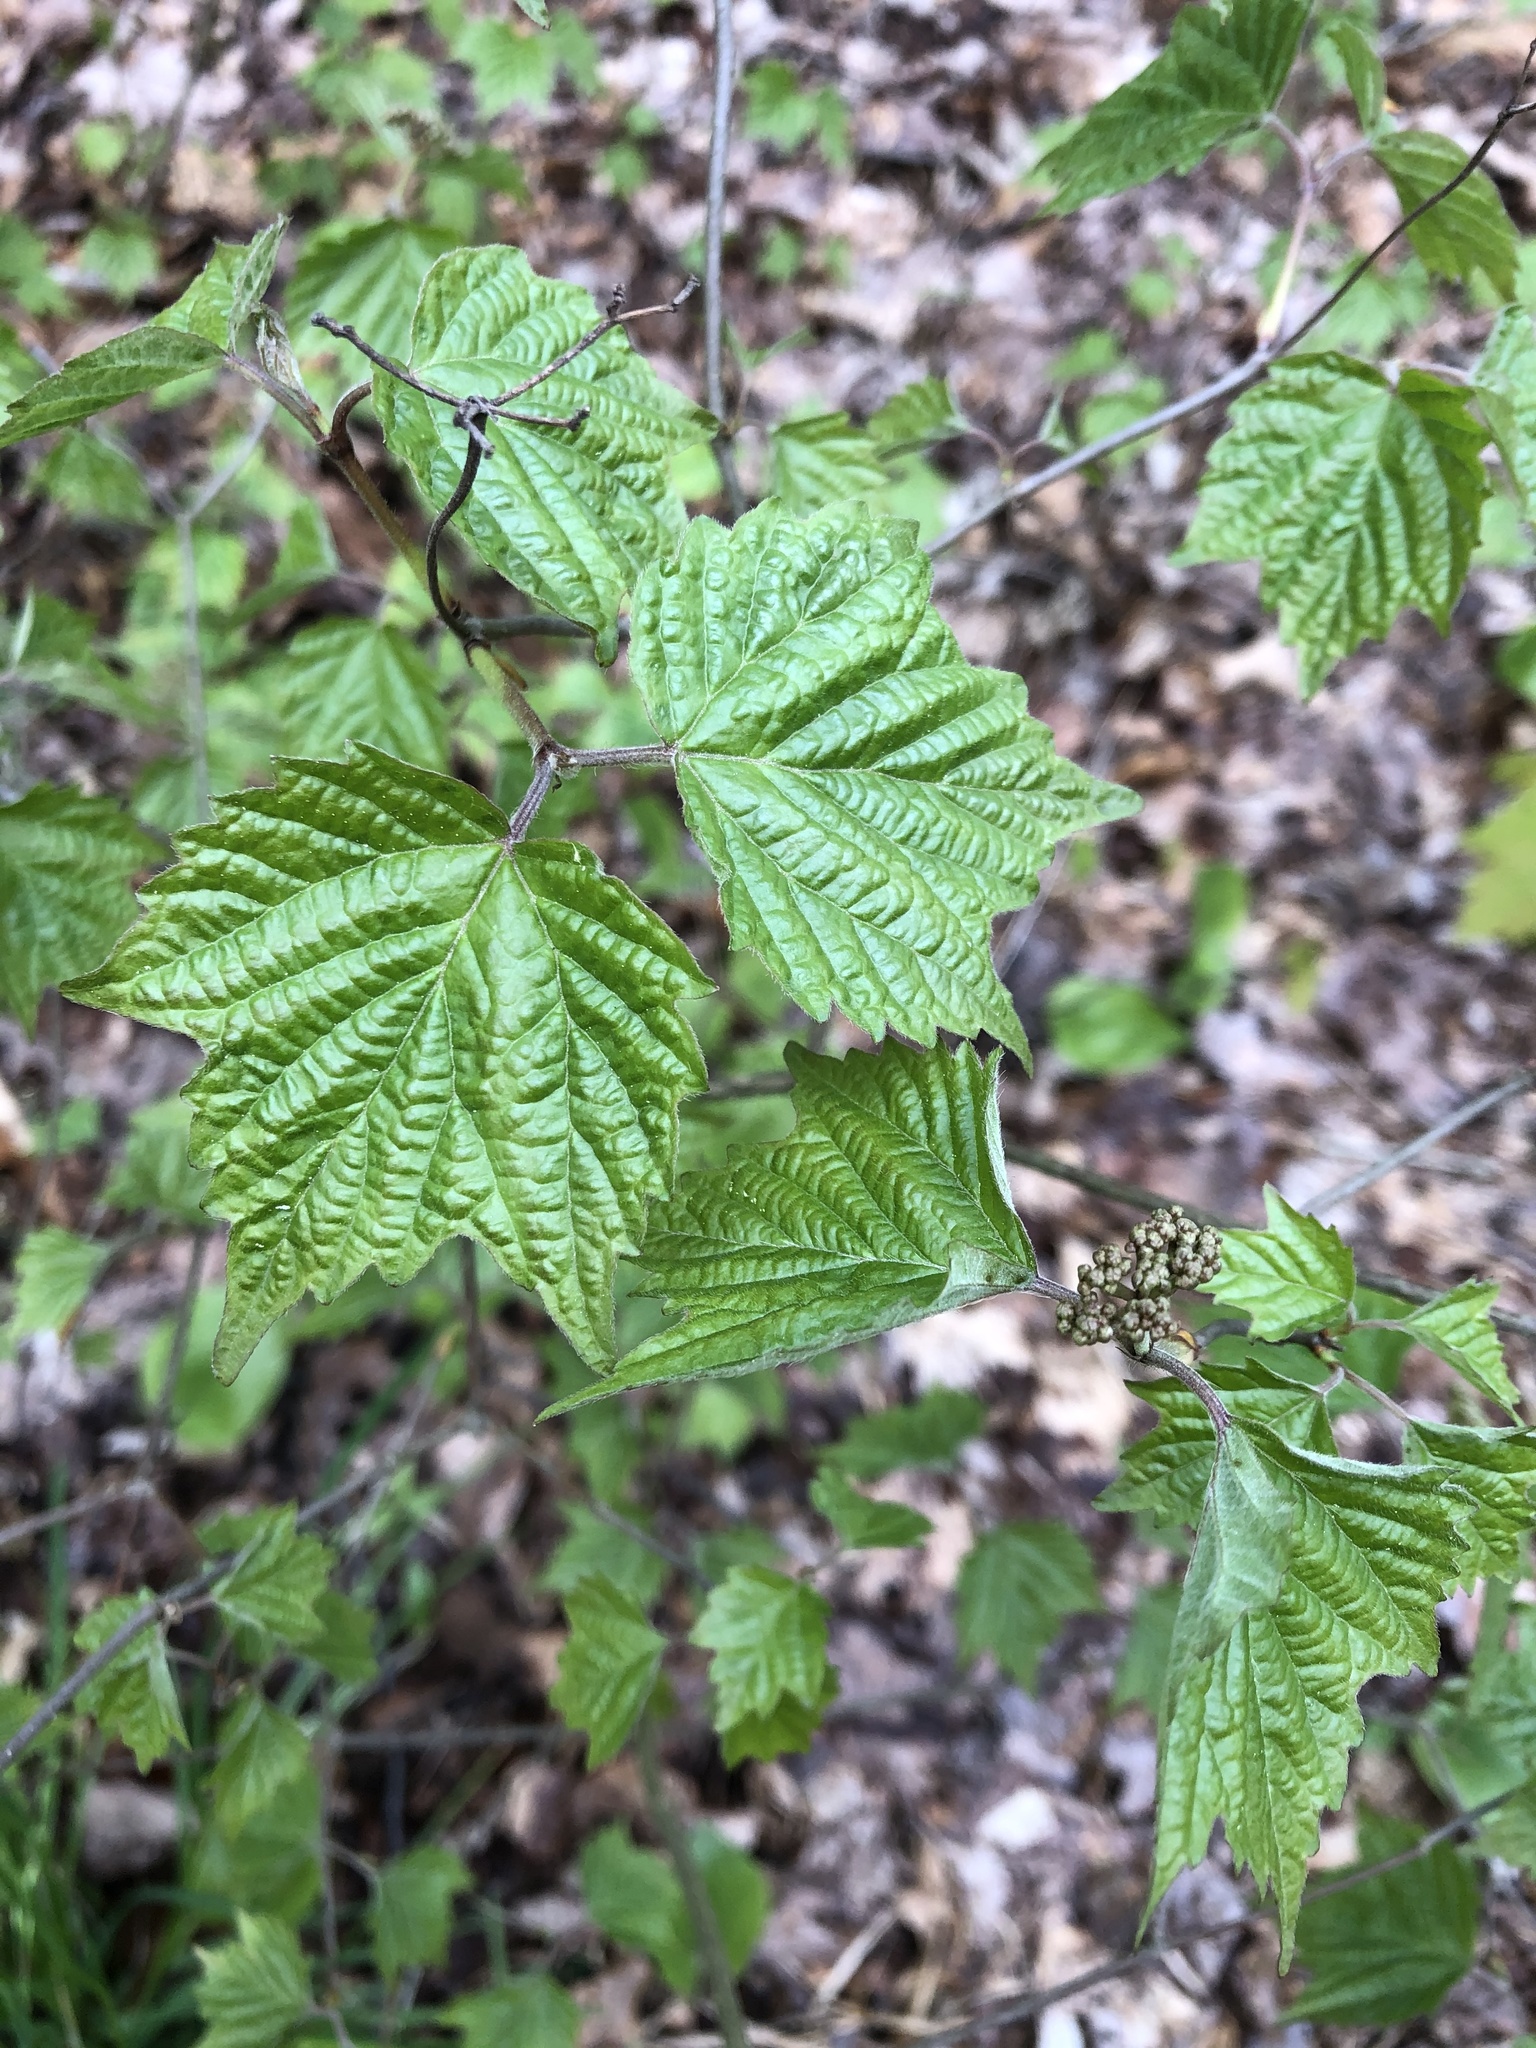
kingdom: Plantae
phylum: Tracheophyta
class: Magnoliopsida
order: Dipsacales
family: Viburnaceae
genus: Viburnum
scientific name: Viburnum acerifolium
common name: Dockmackie
